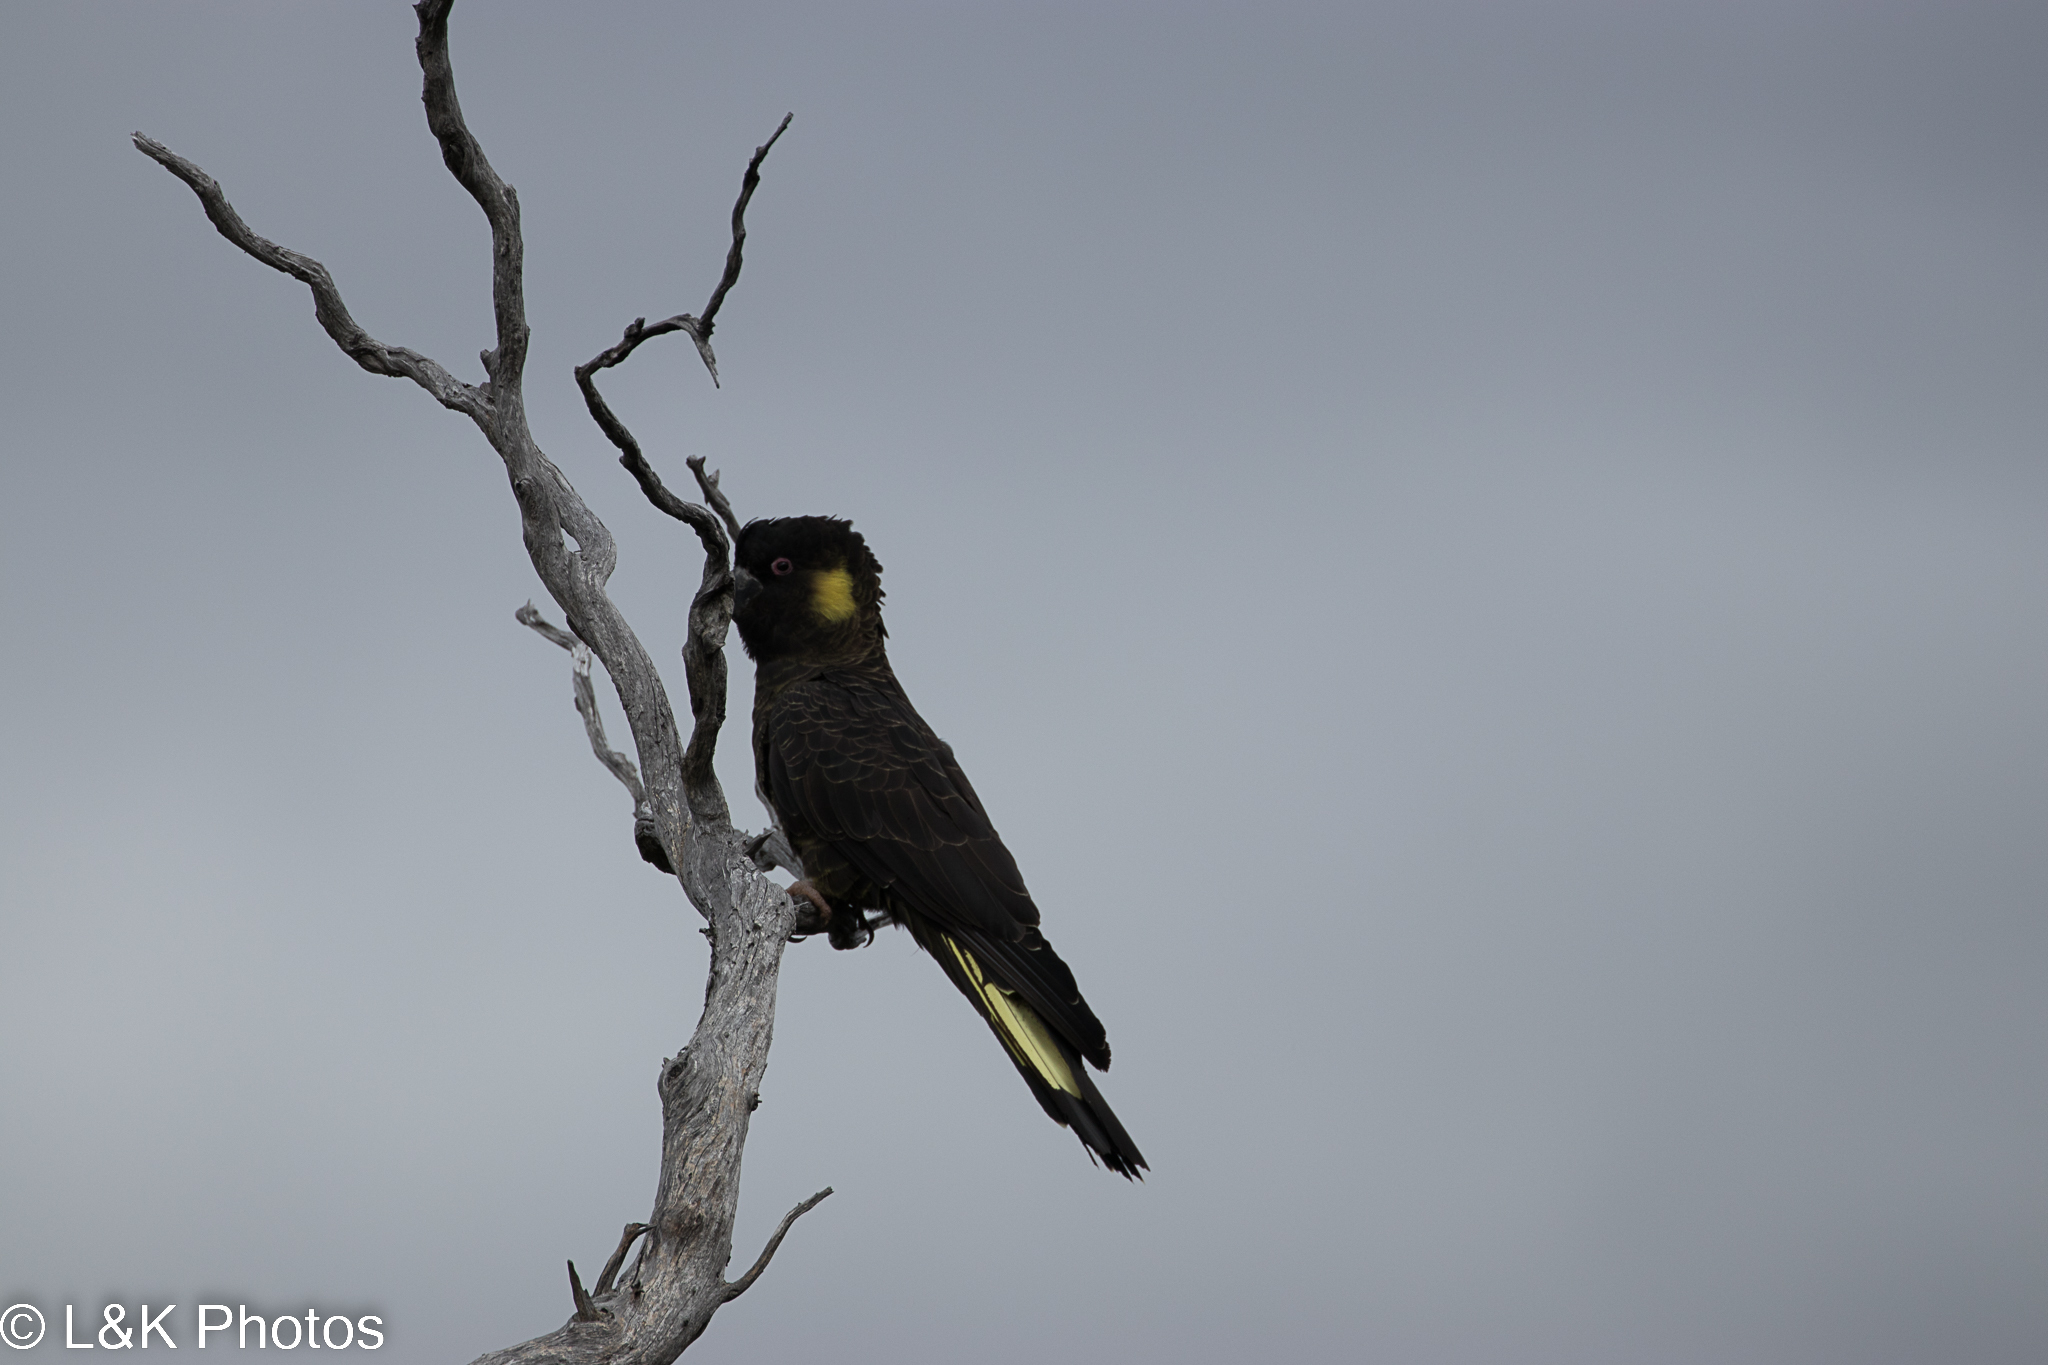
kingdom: Animalia
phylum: Chordata
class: Aves
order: Psittaciformes
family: Cacatuidae
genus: Zanda
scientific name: Zanda funerea
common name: Yellow-tailed black-cockatoo
